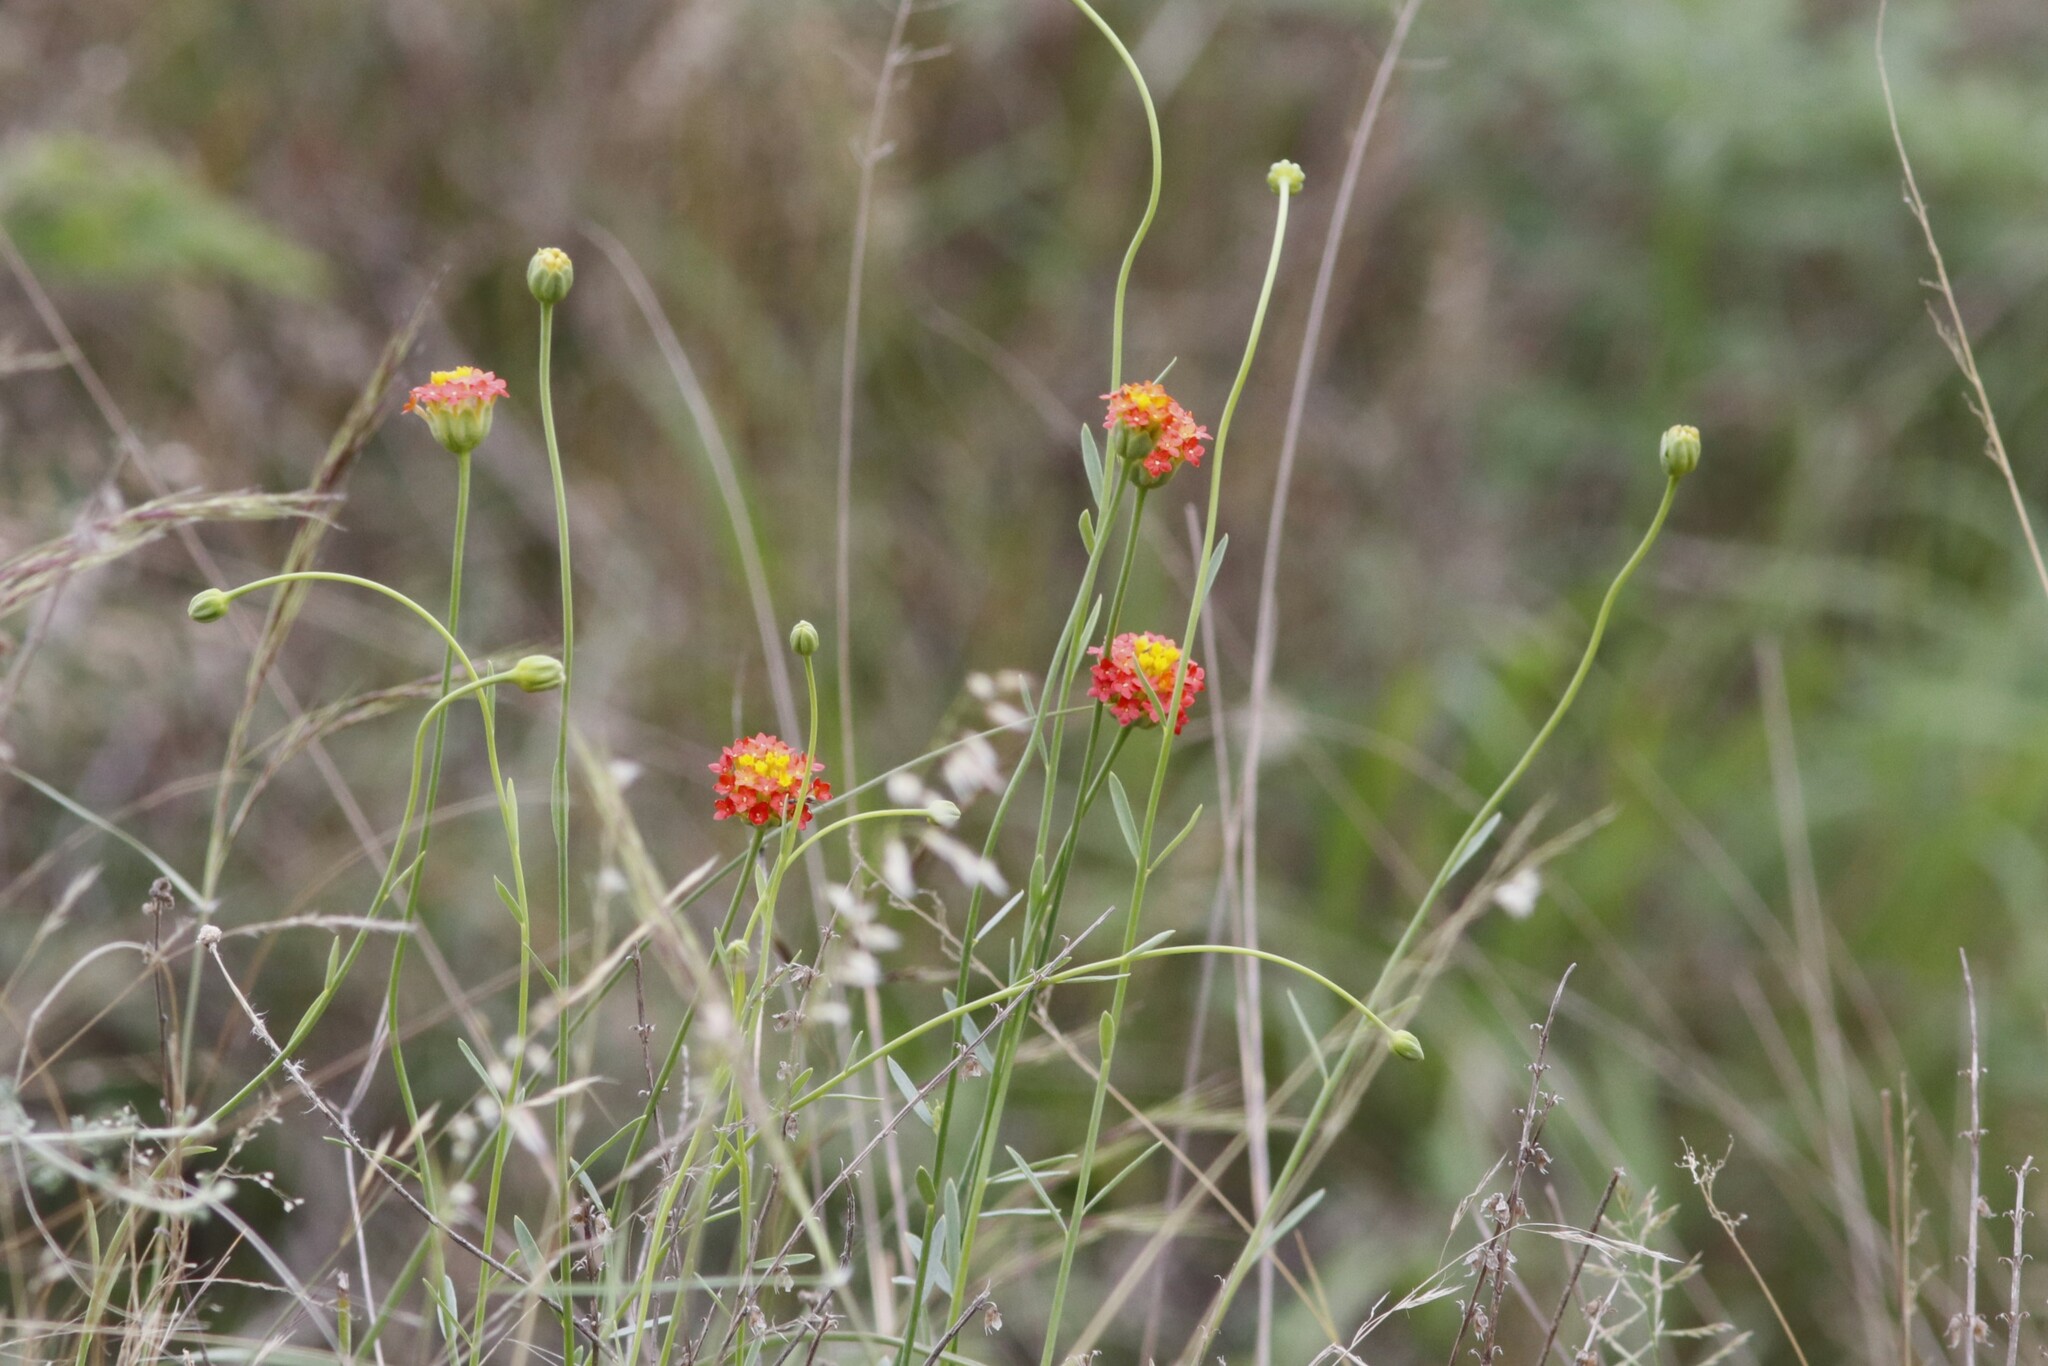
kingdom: Plantae
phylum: Tracheophyta
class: Magnoliopsida
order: Malvales
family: Thymelaeaceae
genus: Gnidia
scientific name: Gnidia rubescens
